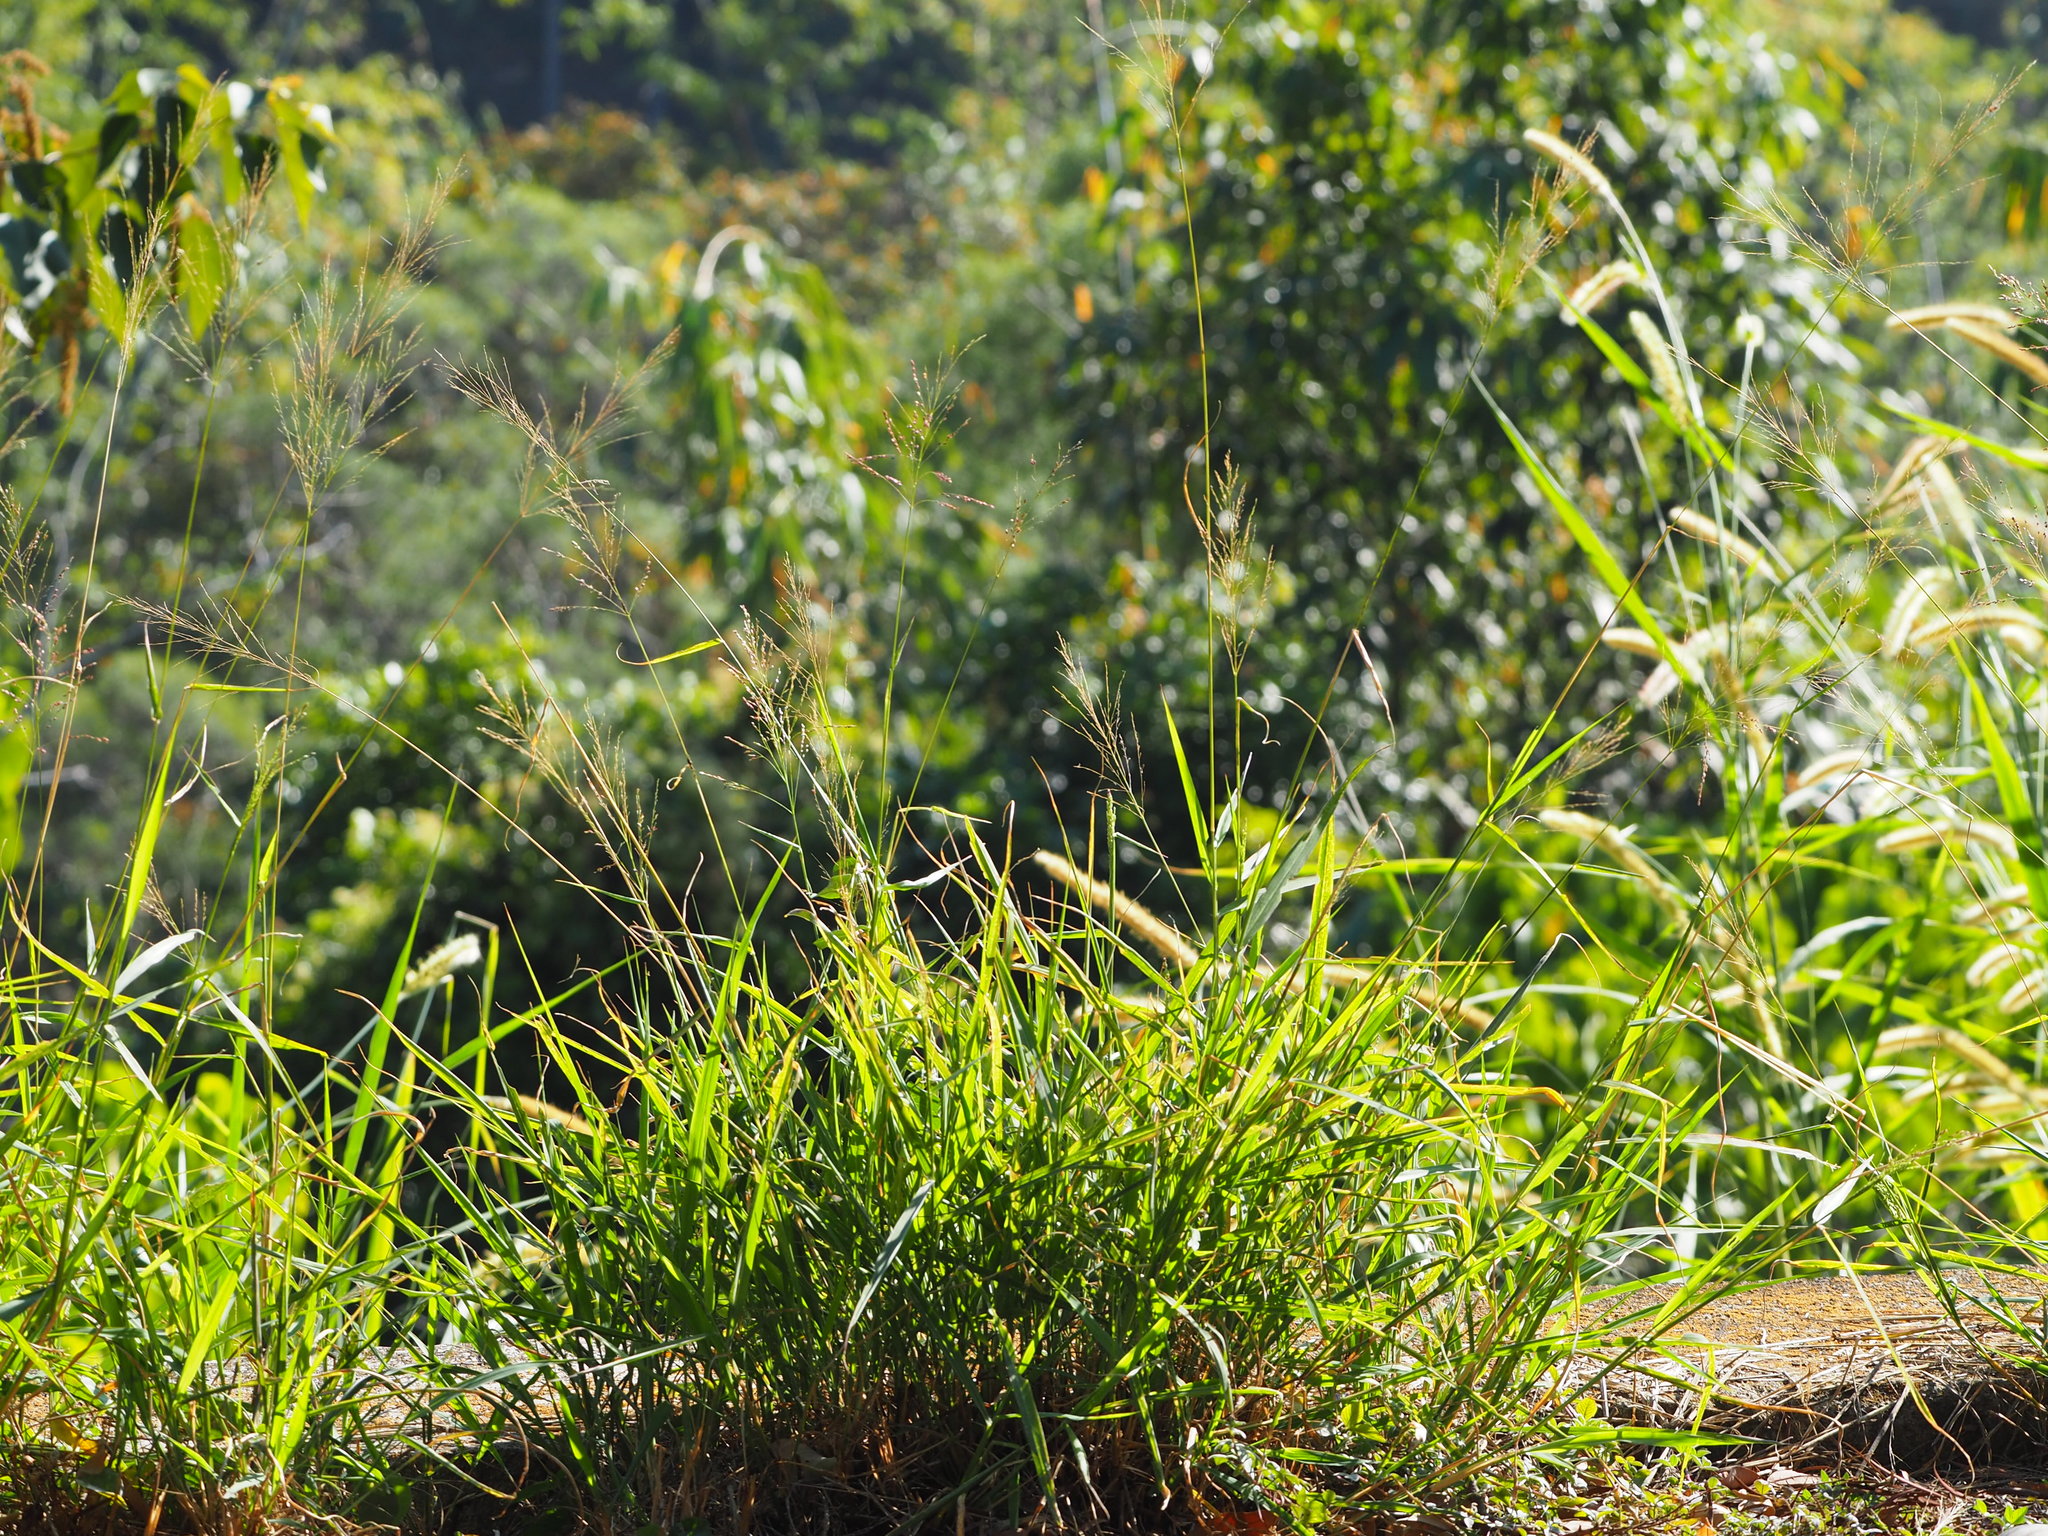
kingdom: Plantae
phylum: Tracheophyta
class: Liliopsida
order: Poales
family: Poaceae
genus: Megathyrsus
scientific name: Megathyrsus maximus
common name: Guineagrass
